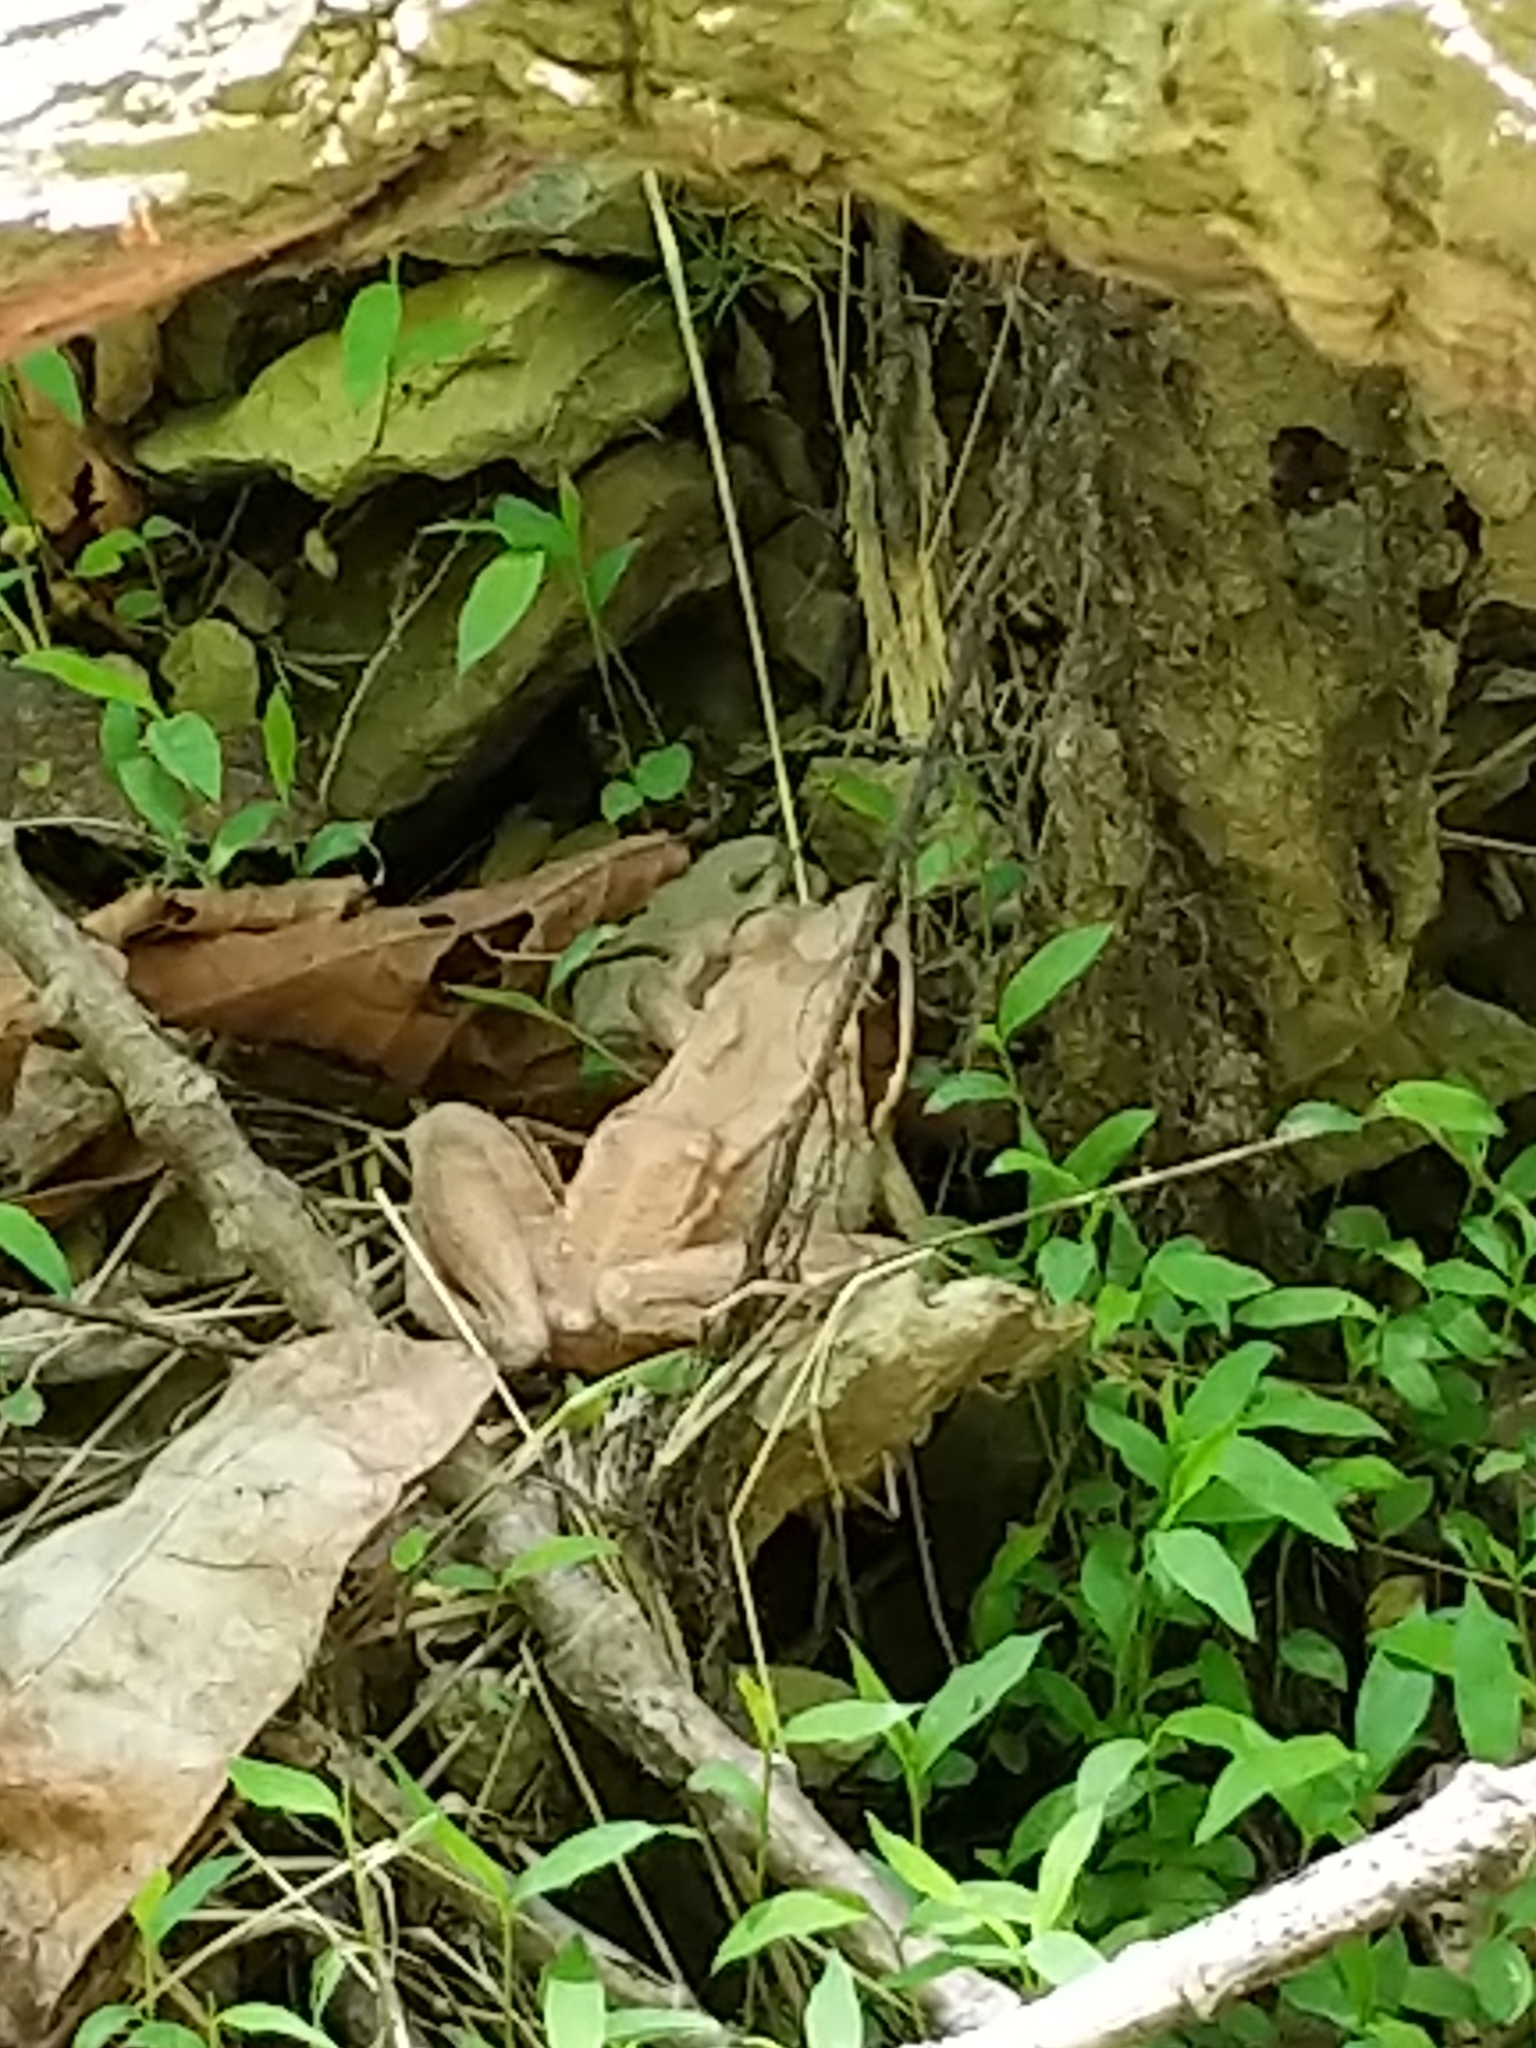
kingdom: Animalia
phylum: Chordata
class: Amphibia
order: Anura
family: Ranidae
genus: Lithobates
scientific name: Lithobates sylvaticus
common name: Wood frog
